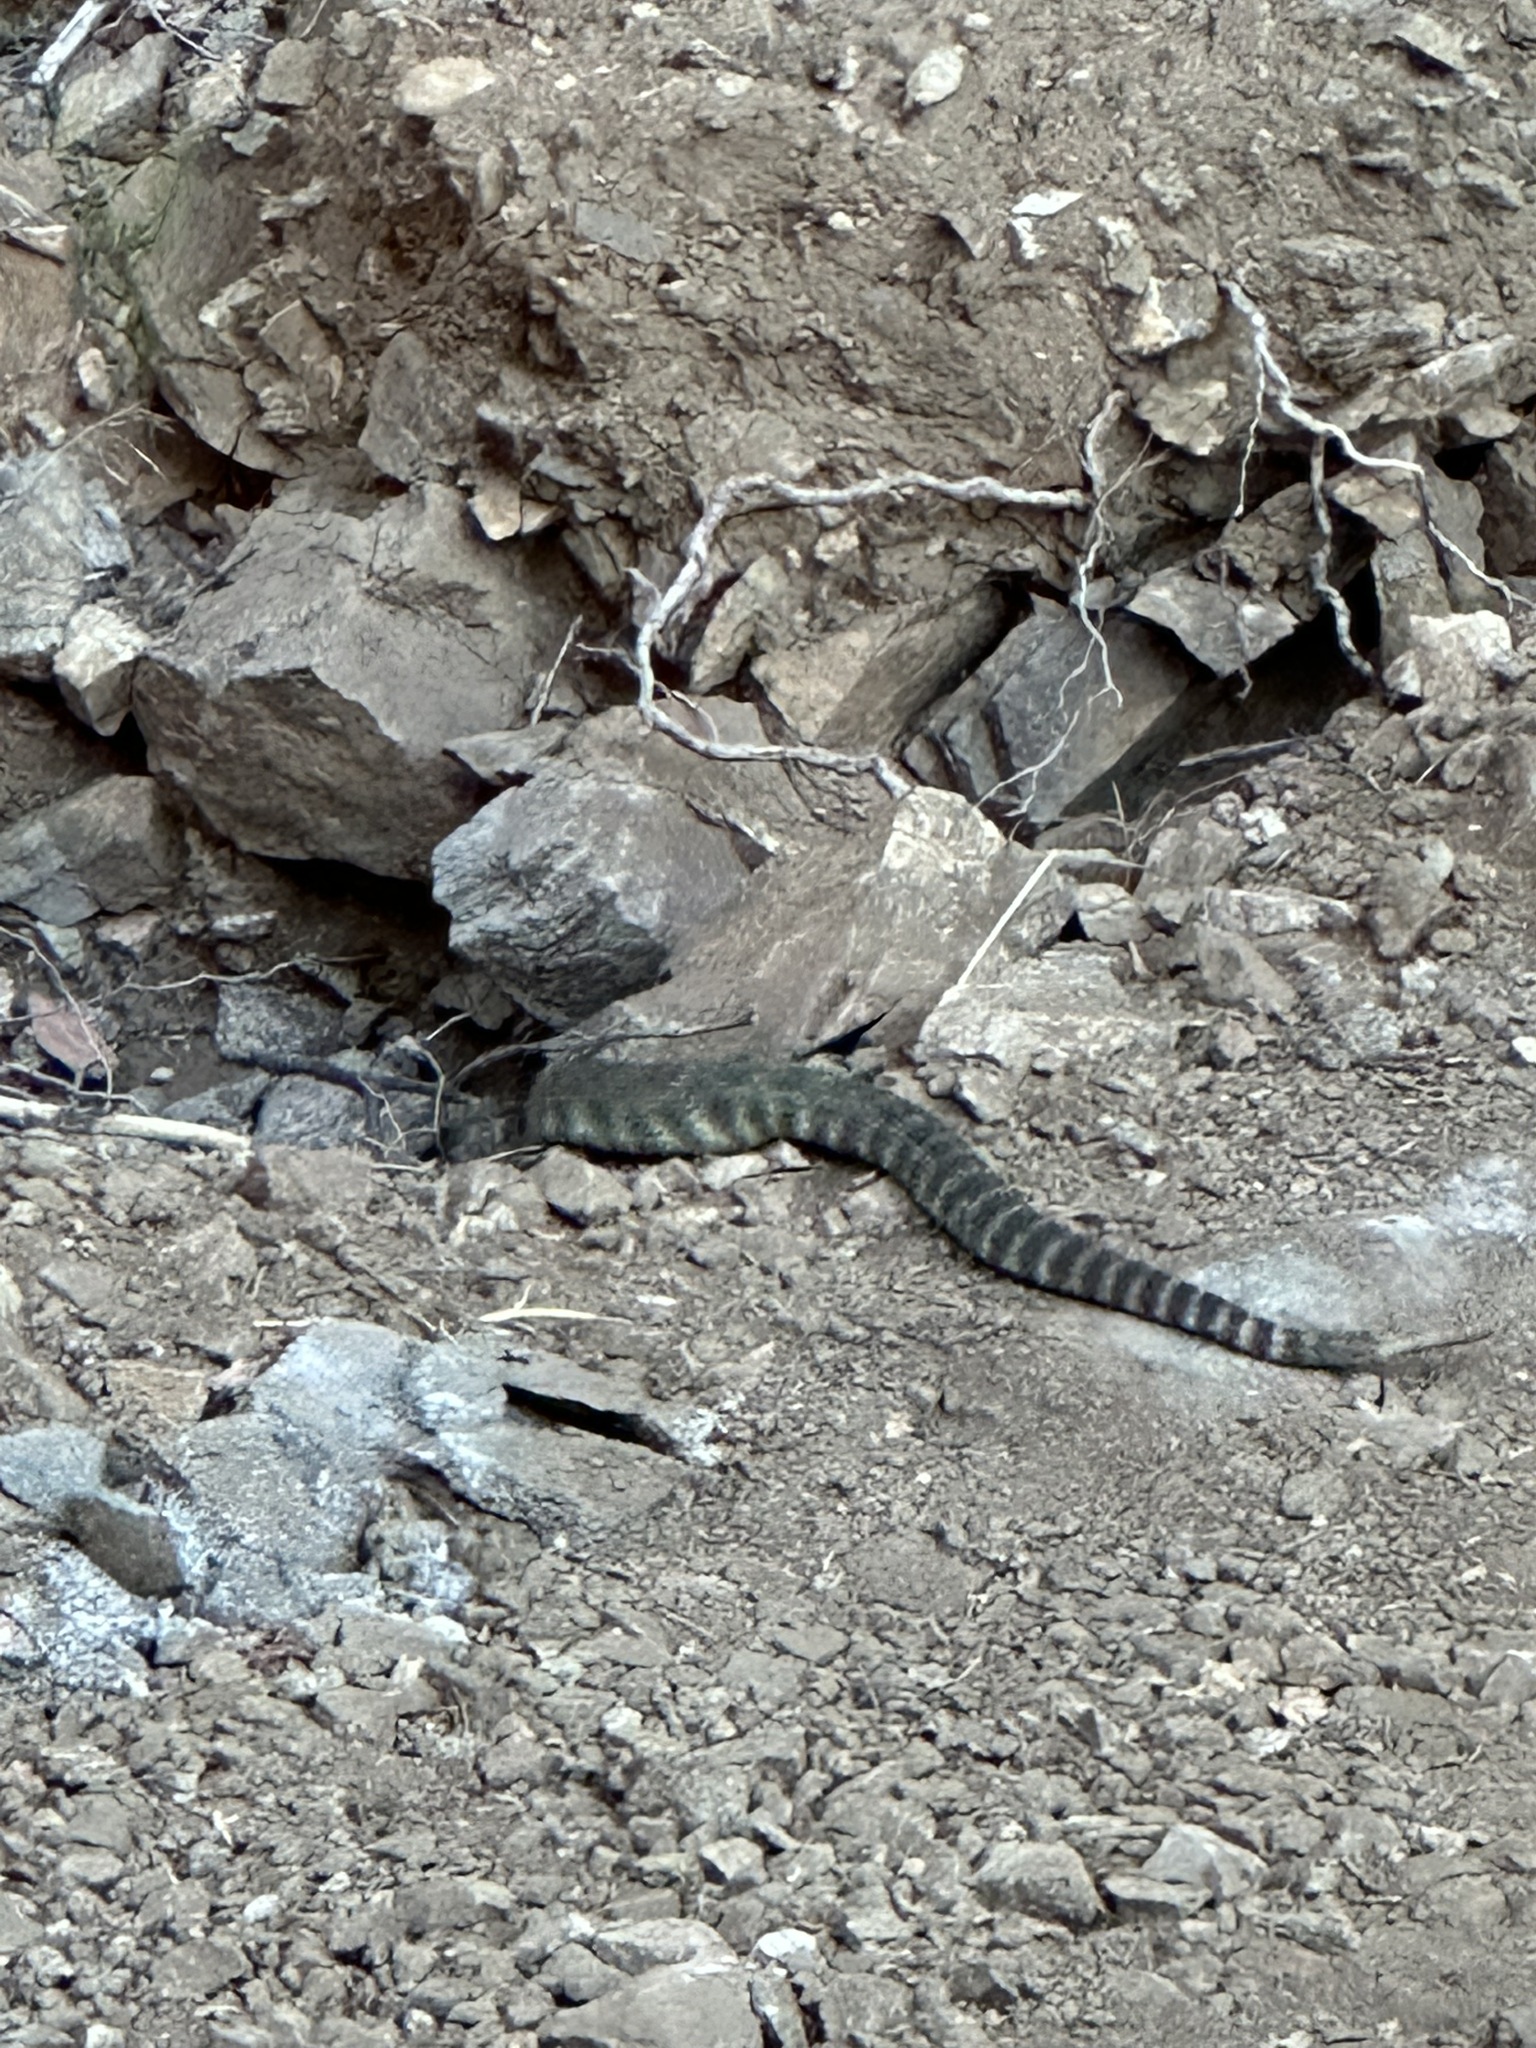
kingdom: Animalia
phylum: Chordata
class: Squamata
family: Viperidae
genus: Crotalus
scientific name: Crotalus oreganus
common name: Abyssus
